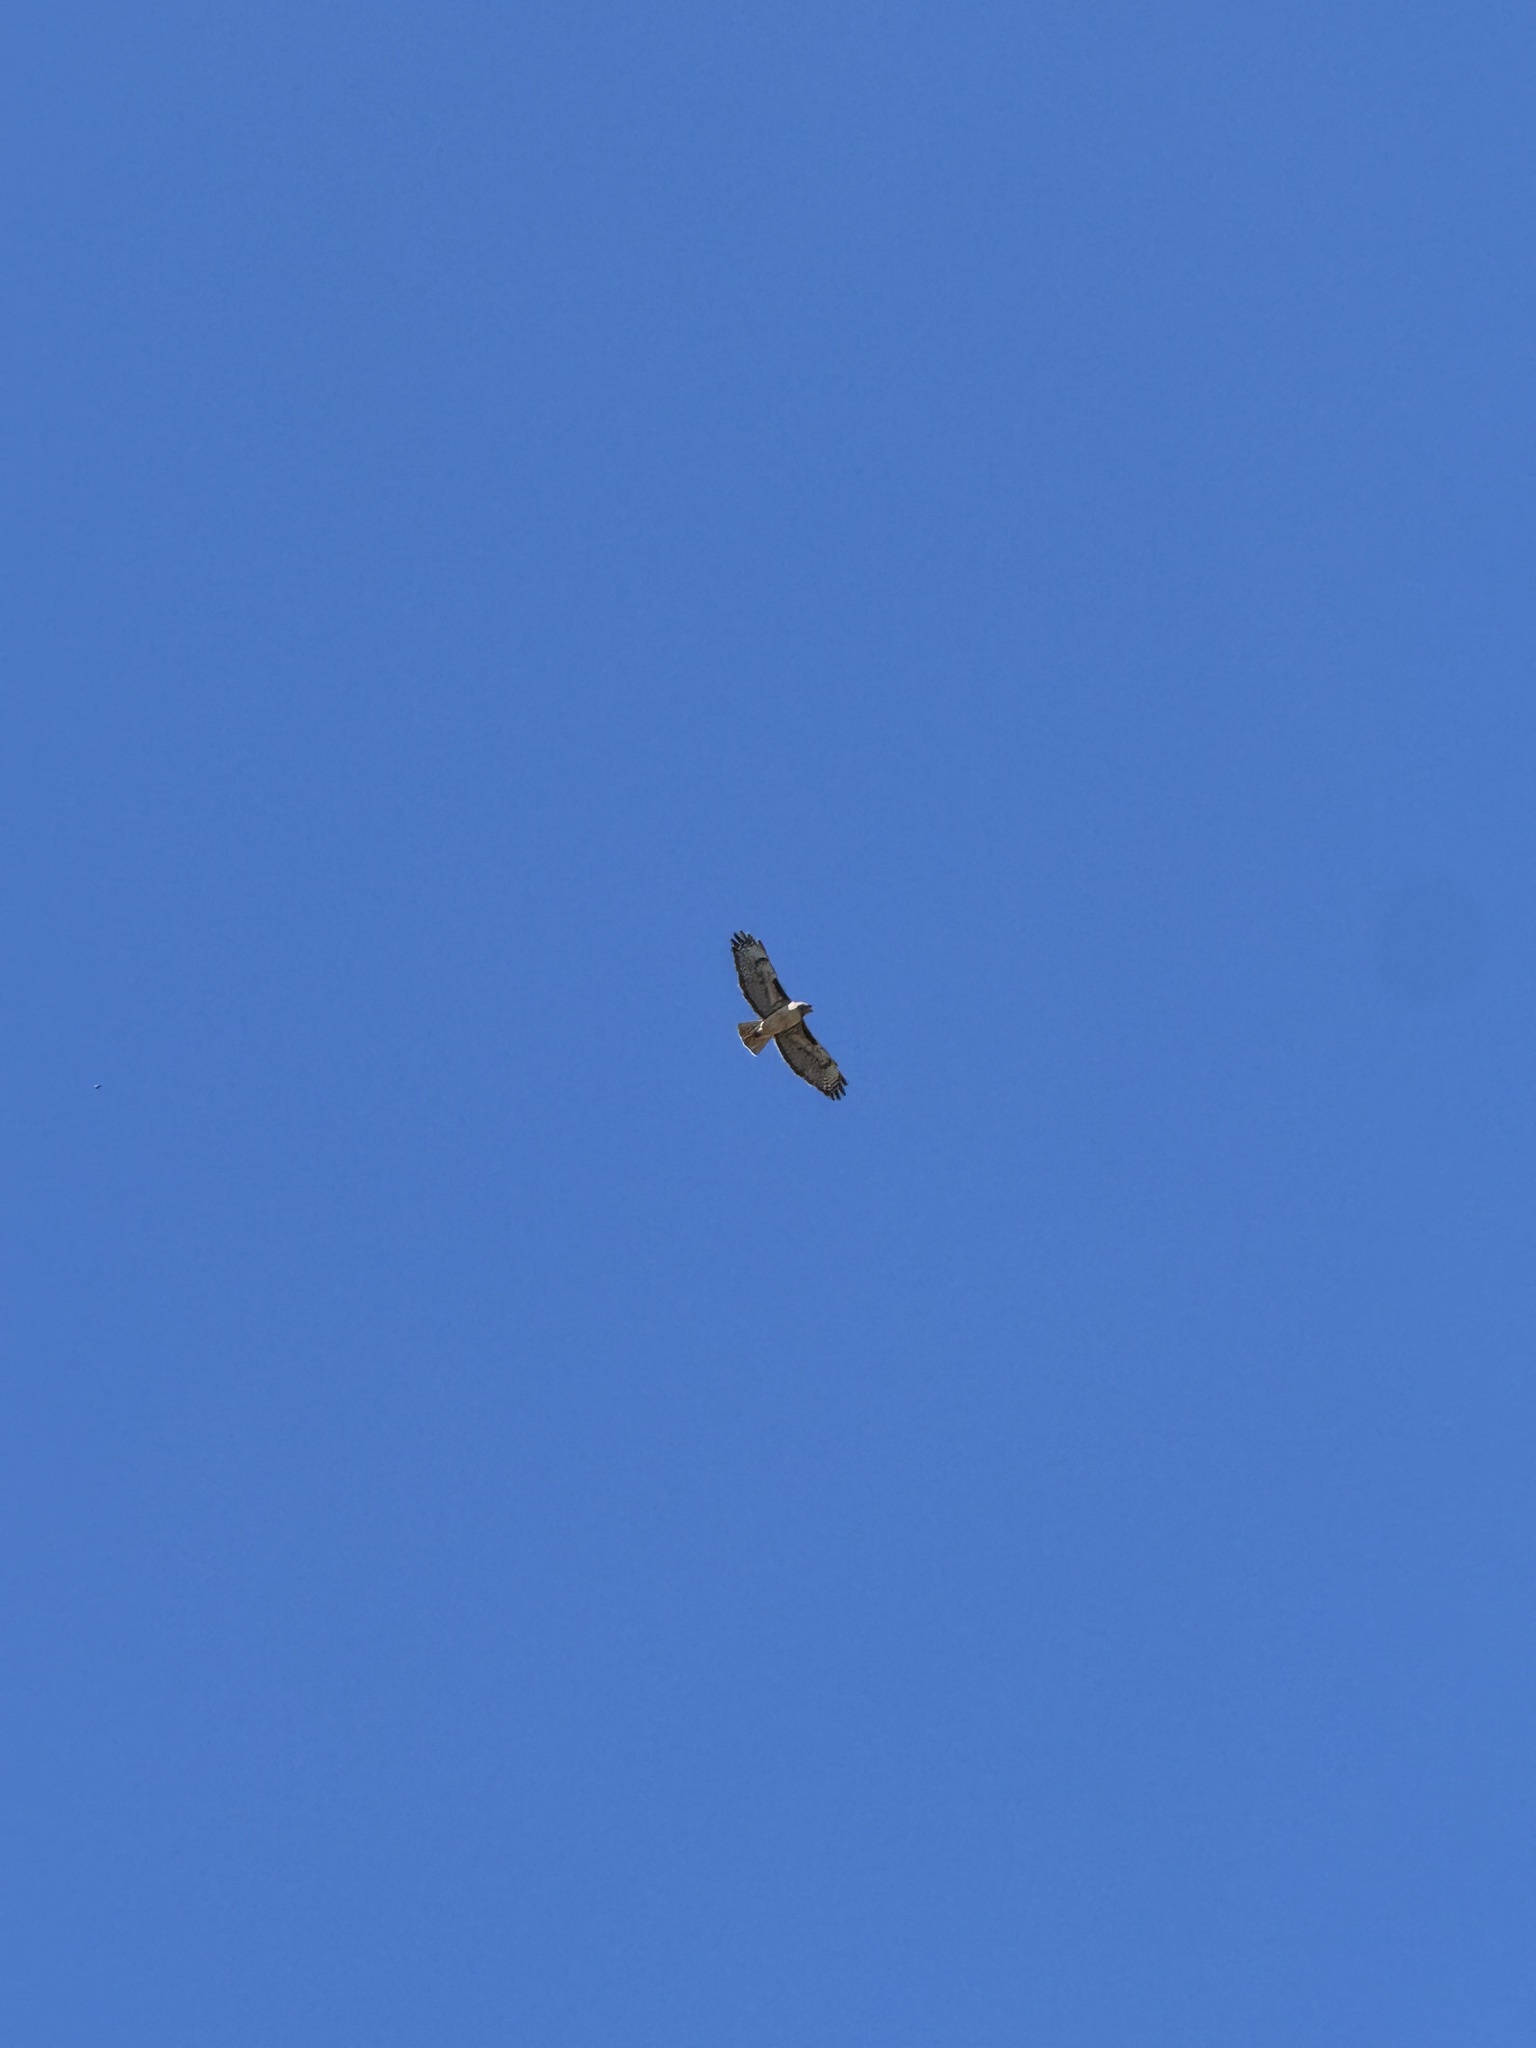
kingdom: Animalia
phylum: Chordata
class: Aves
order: Accipitriformes
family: Accipitridae
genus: Buteo
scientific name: Buteo jamaicensis
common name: Red-tailed hawk
